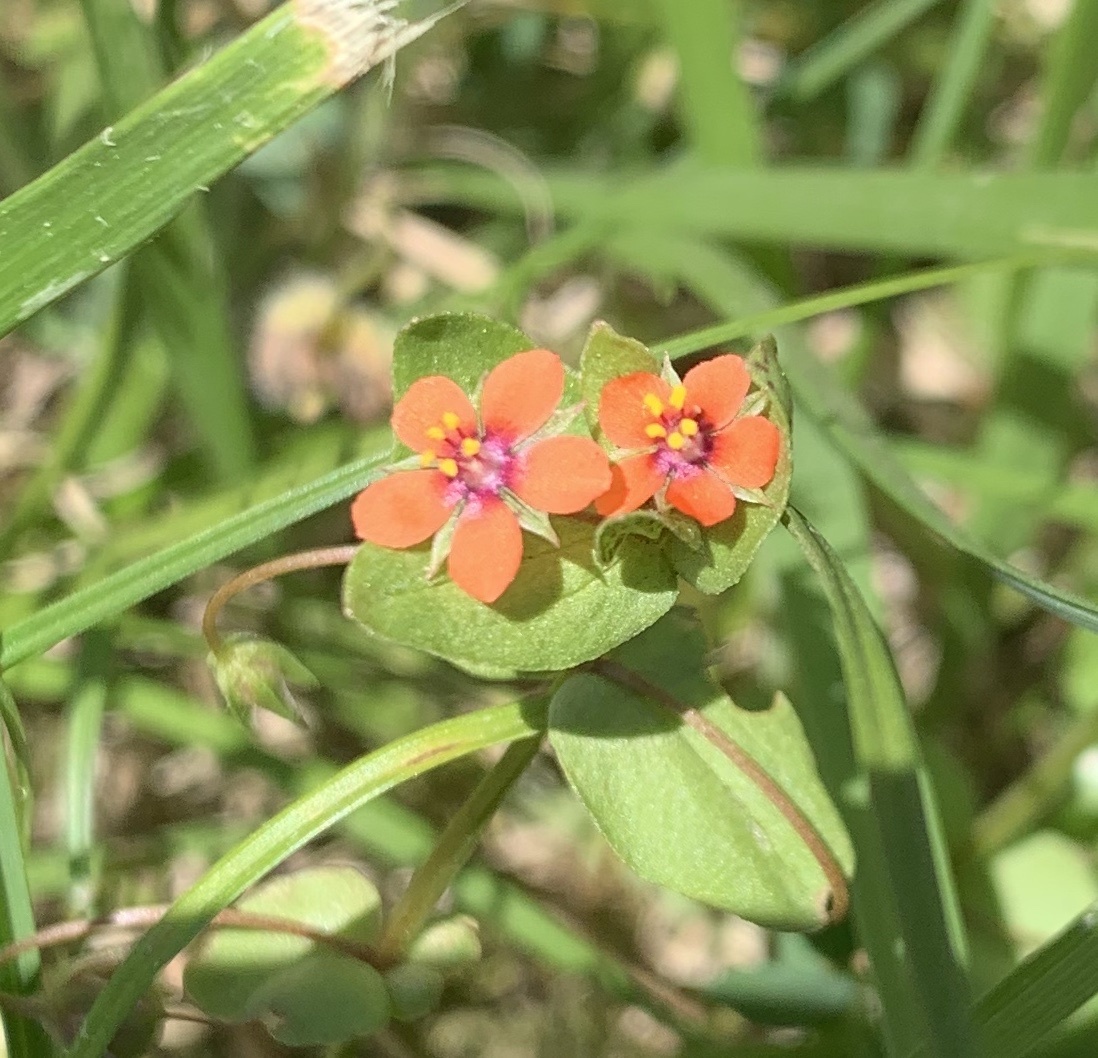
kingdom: Plantae
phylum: Tracheophyta
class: Magnoliopsida
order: Ericales
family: Primulaceae
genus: Lysimachia
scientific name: Lysimachia arvensis
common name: Scarlet pimpernel
